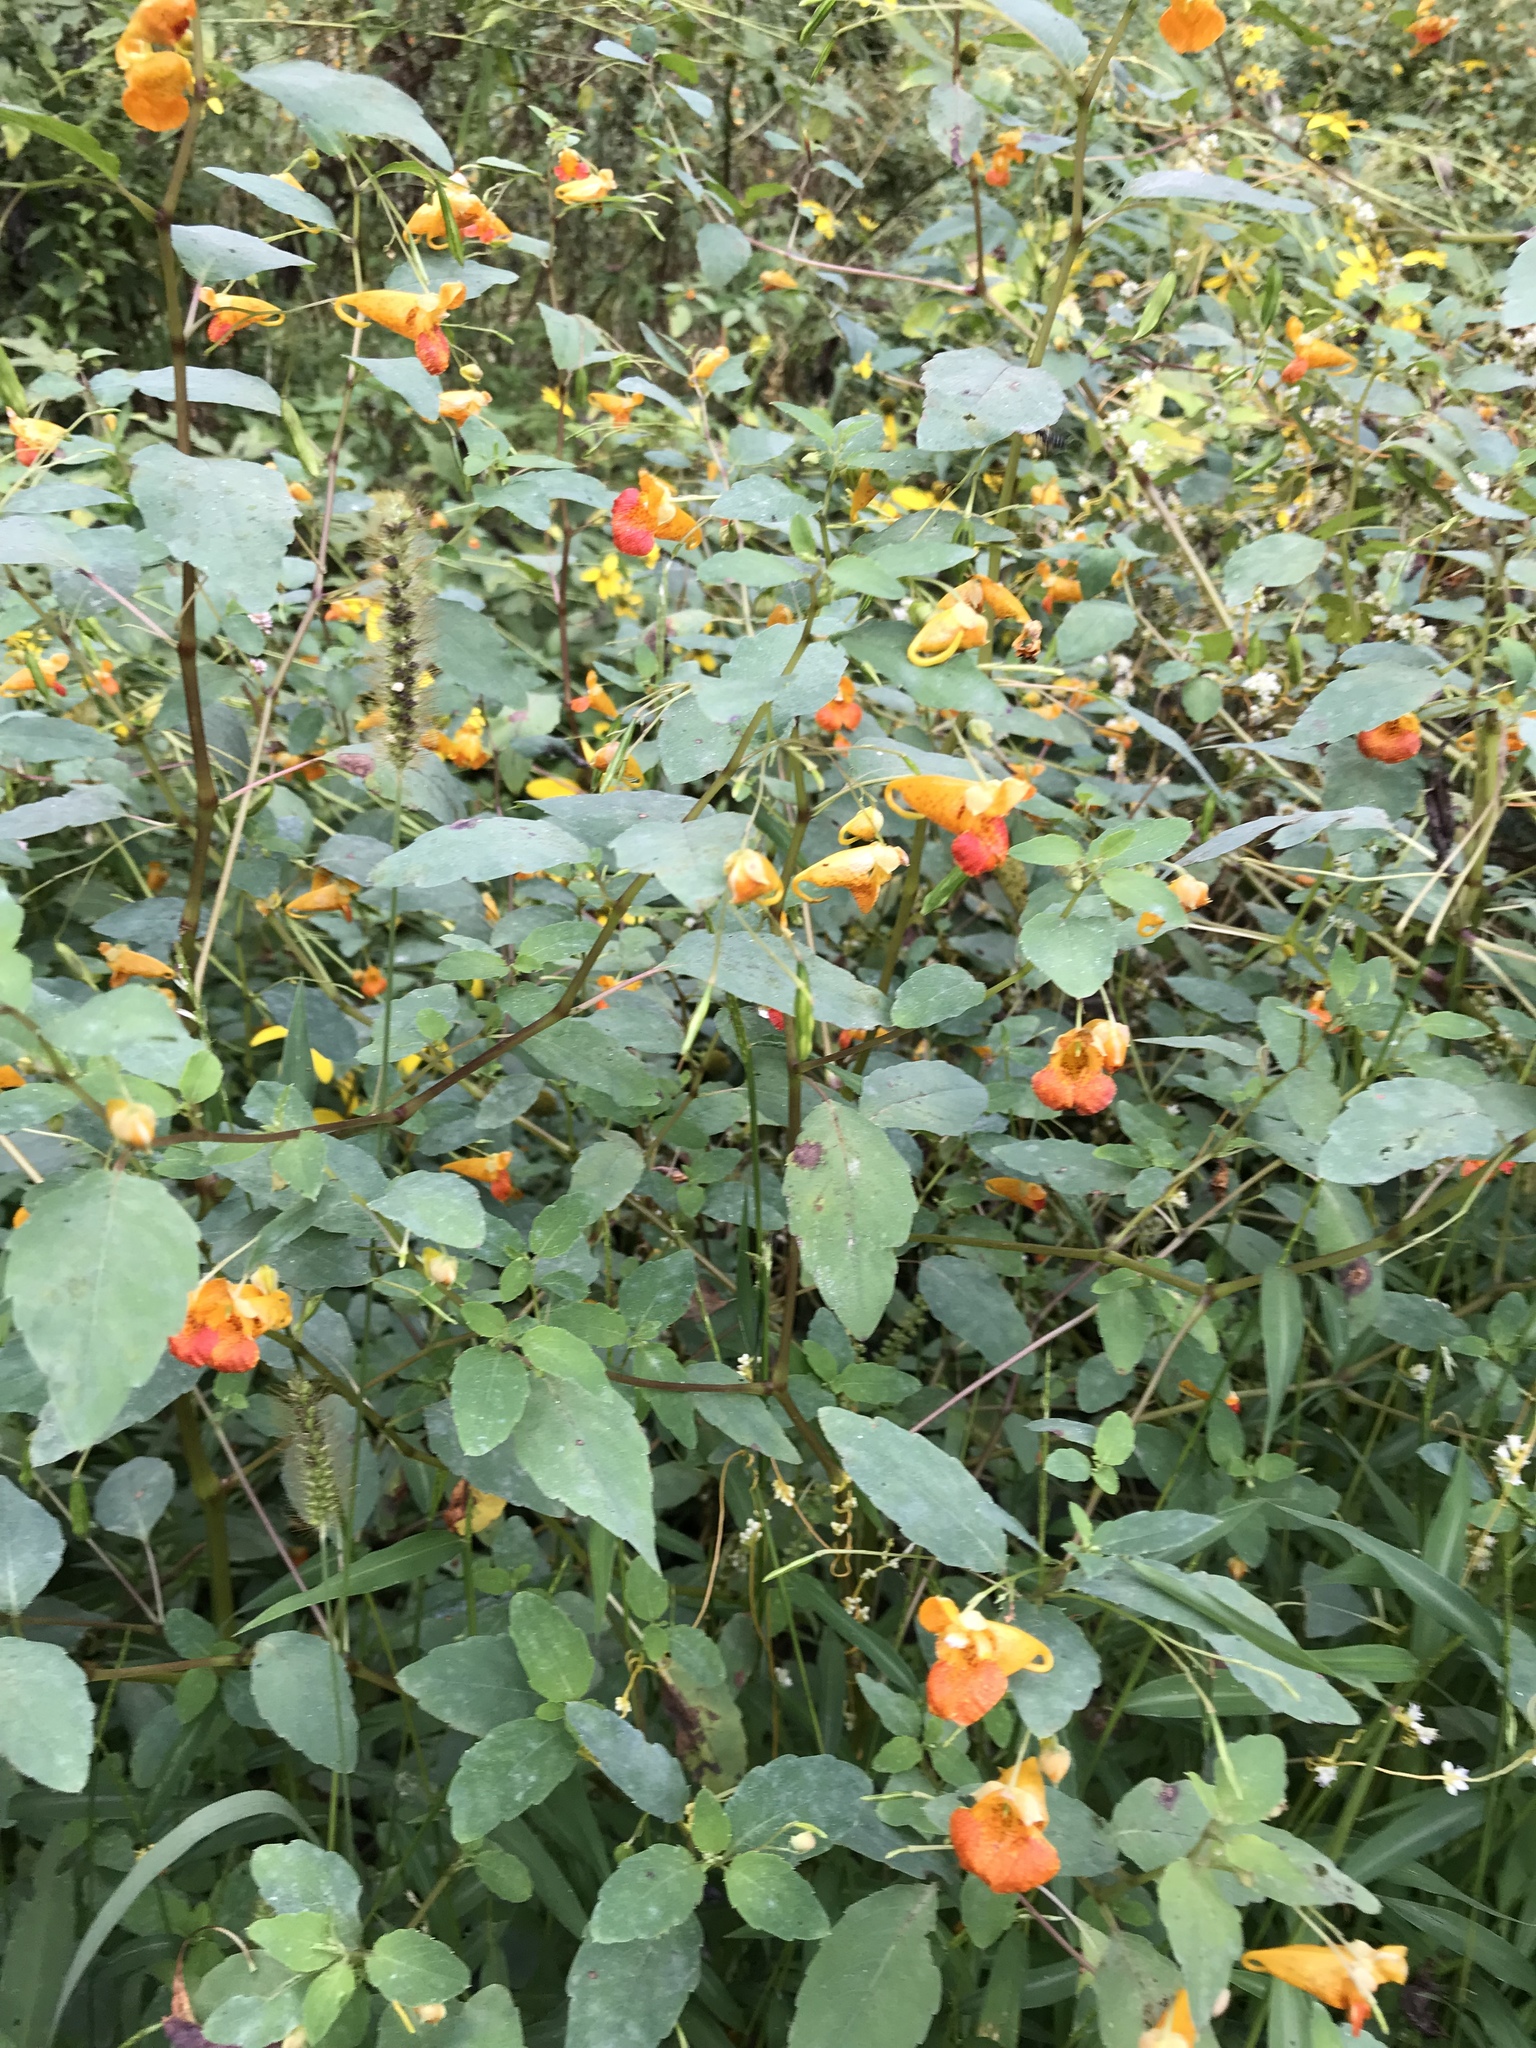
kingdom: Plantae
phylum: Tracheophyta
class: Magnoliopsida
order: Ericales
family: Balsaminaceae
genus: Impatiens
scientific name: Impatiens capensis
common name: Orange balsam
